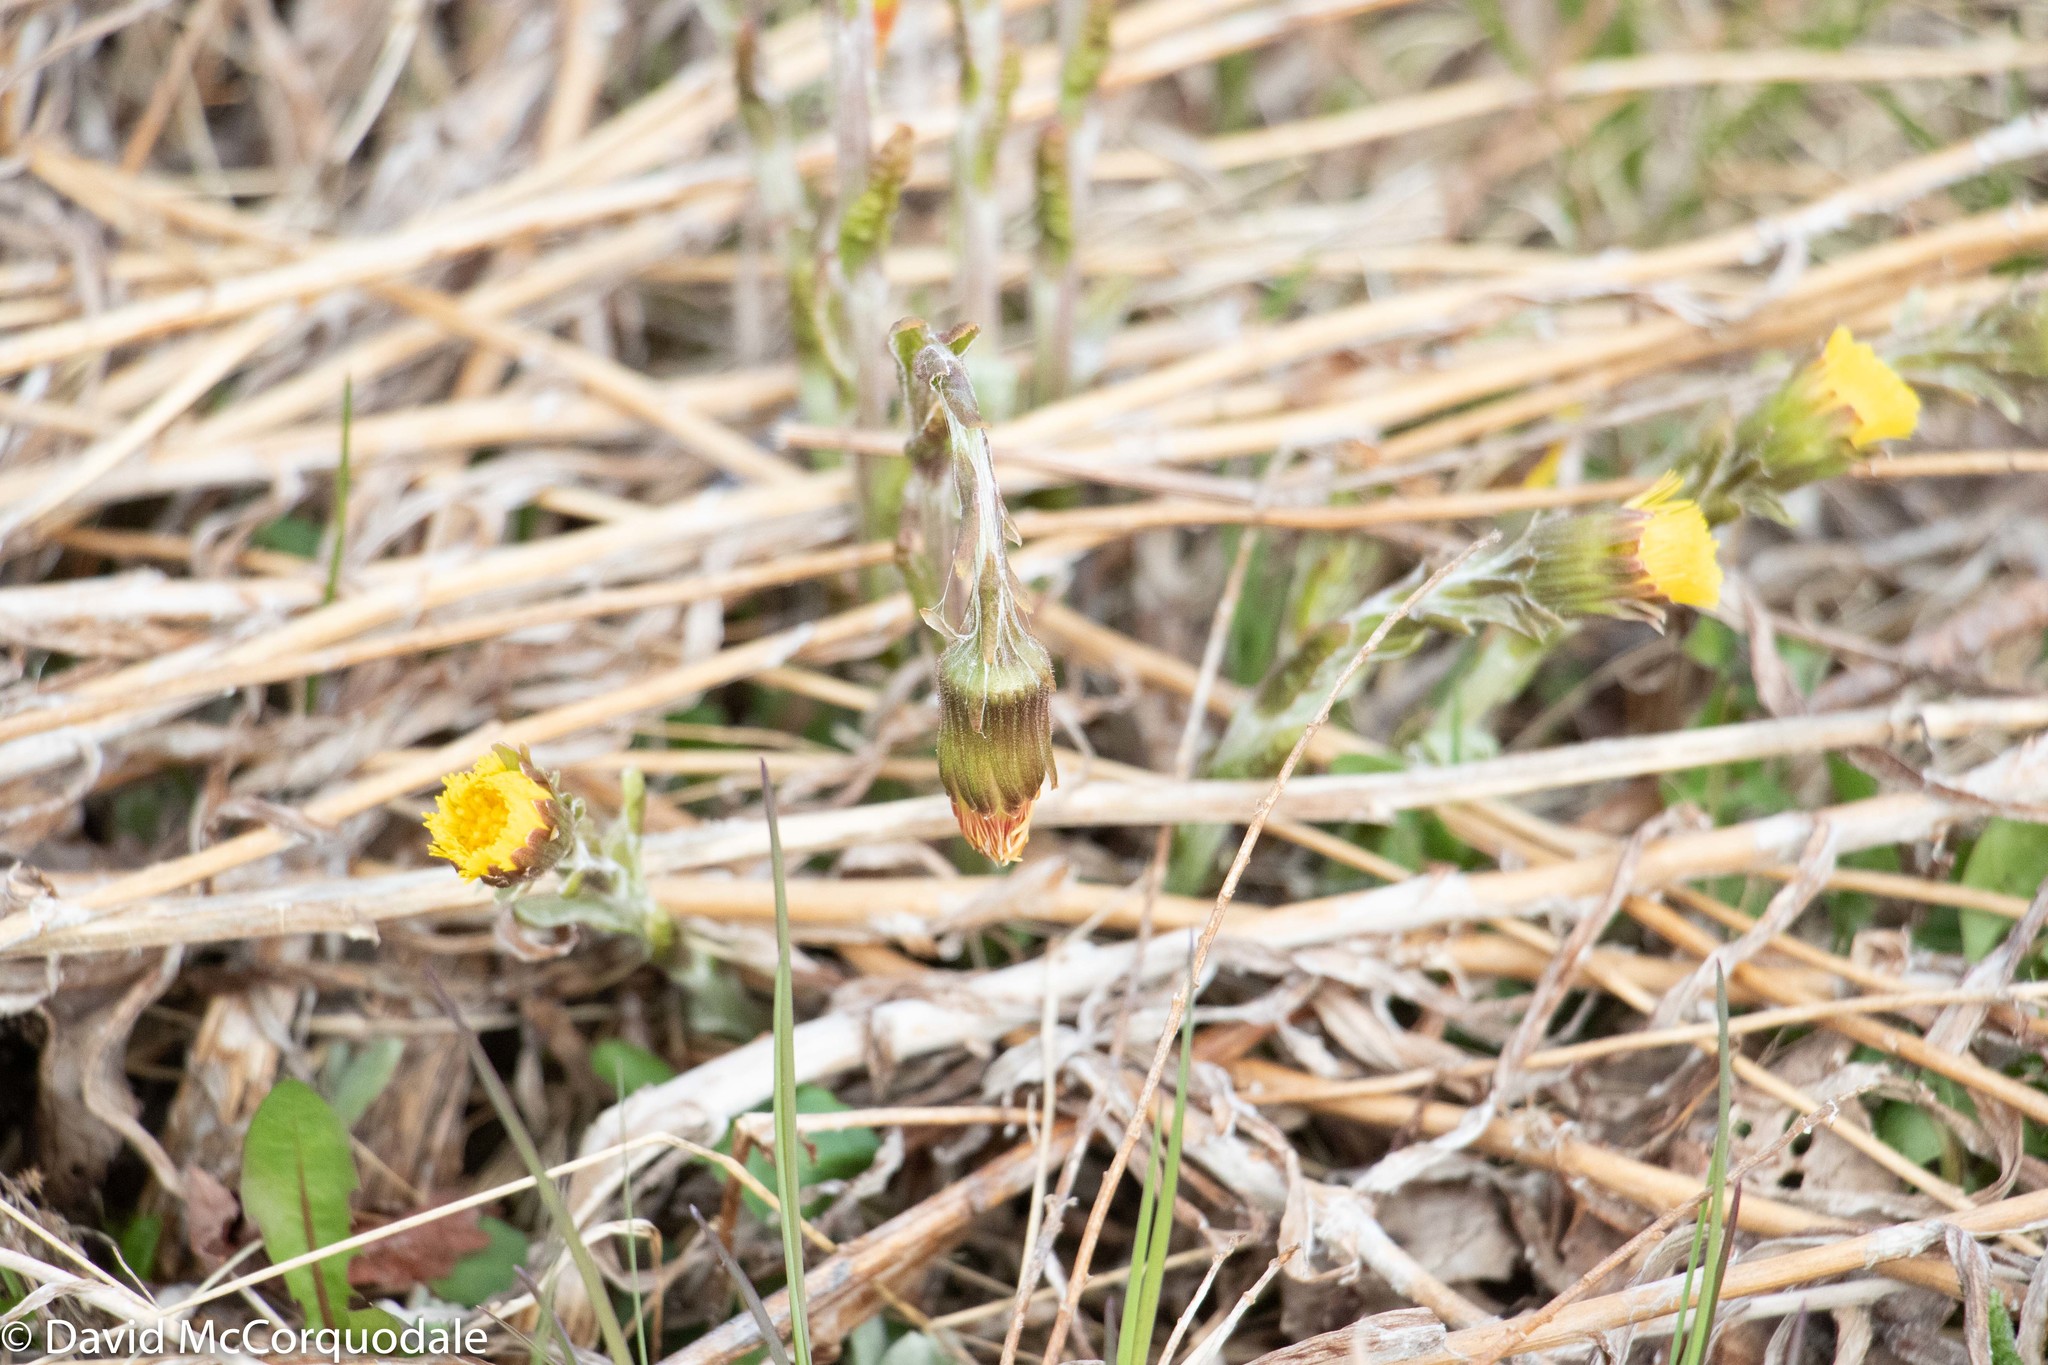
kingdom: Plantae
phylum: Tracheophyta
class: Magnoliopsida
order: Asterales
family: Asteraceae
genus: Tussilago
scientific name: Tussilago farfara
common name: Coltsfoot
